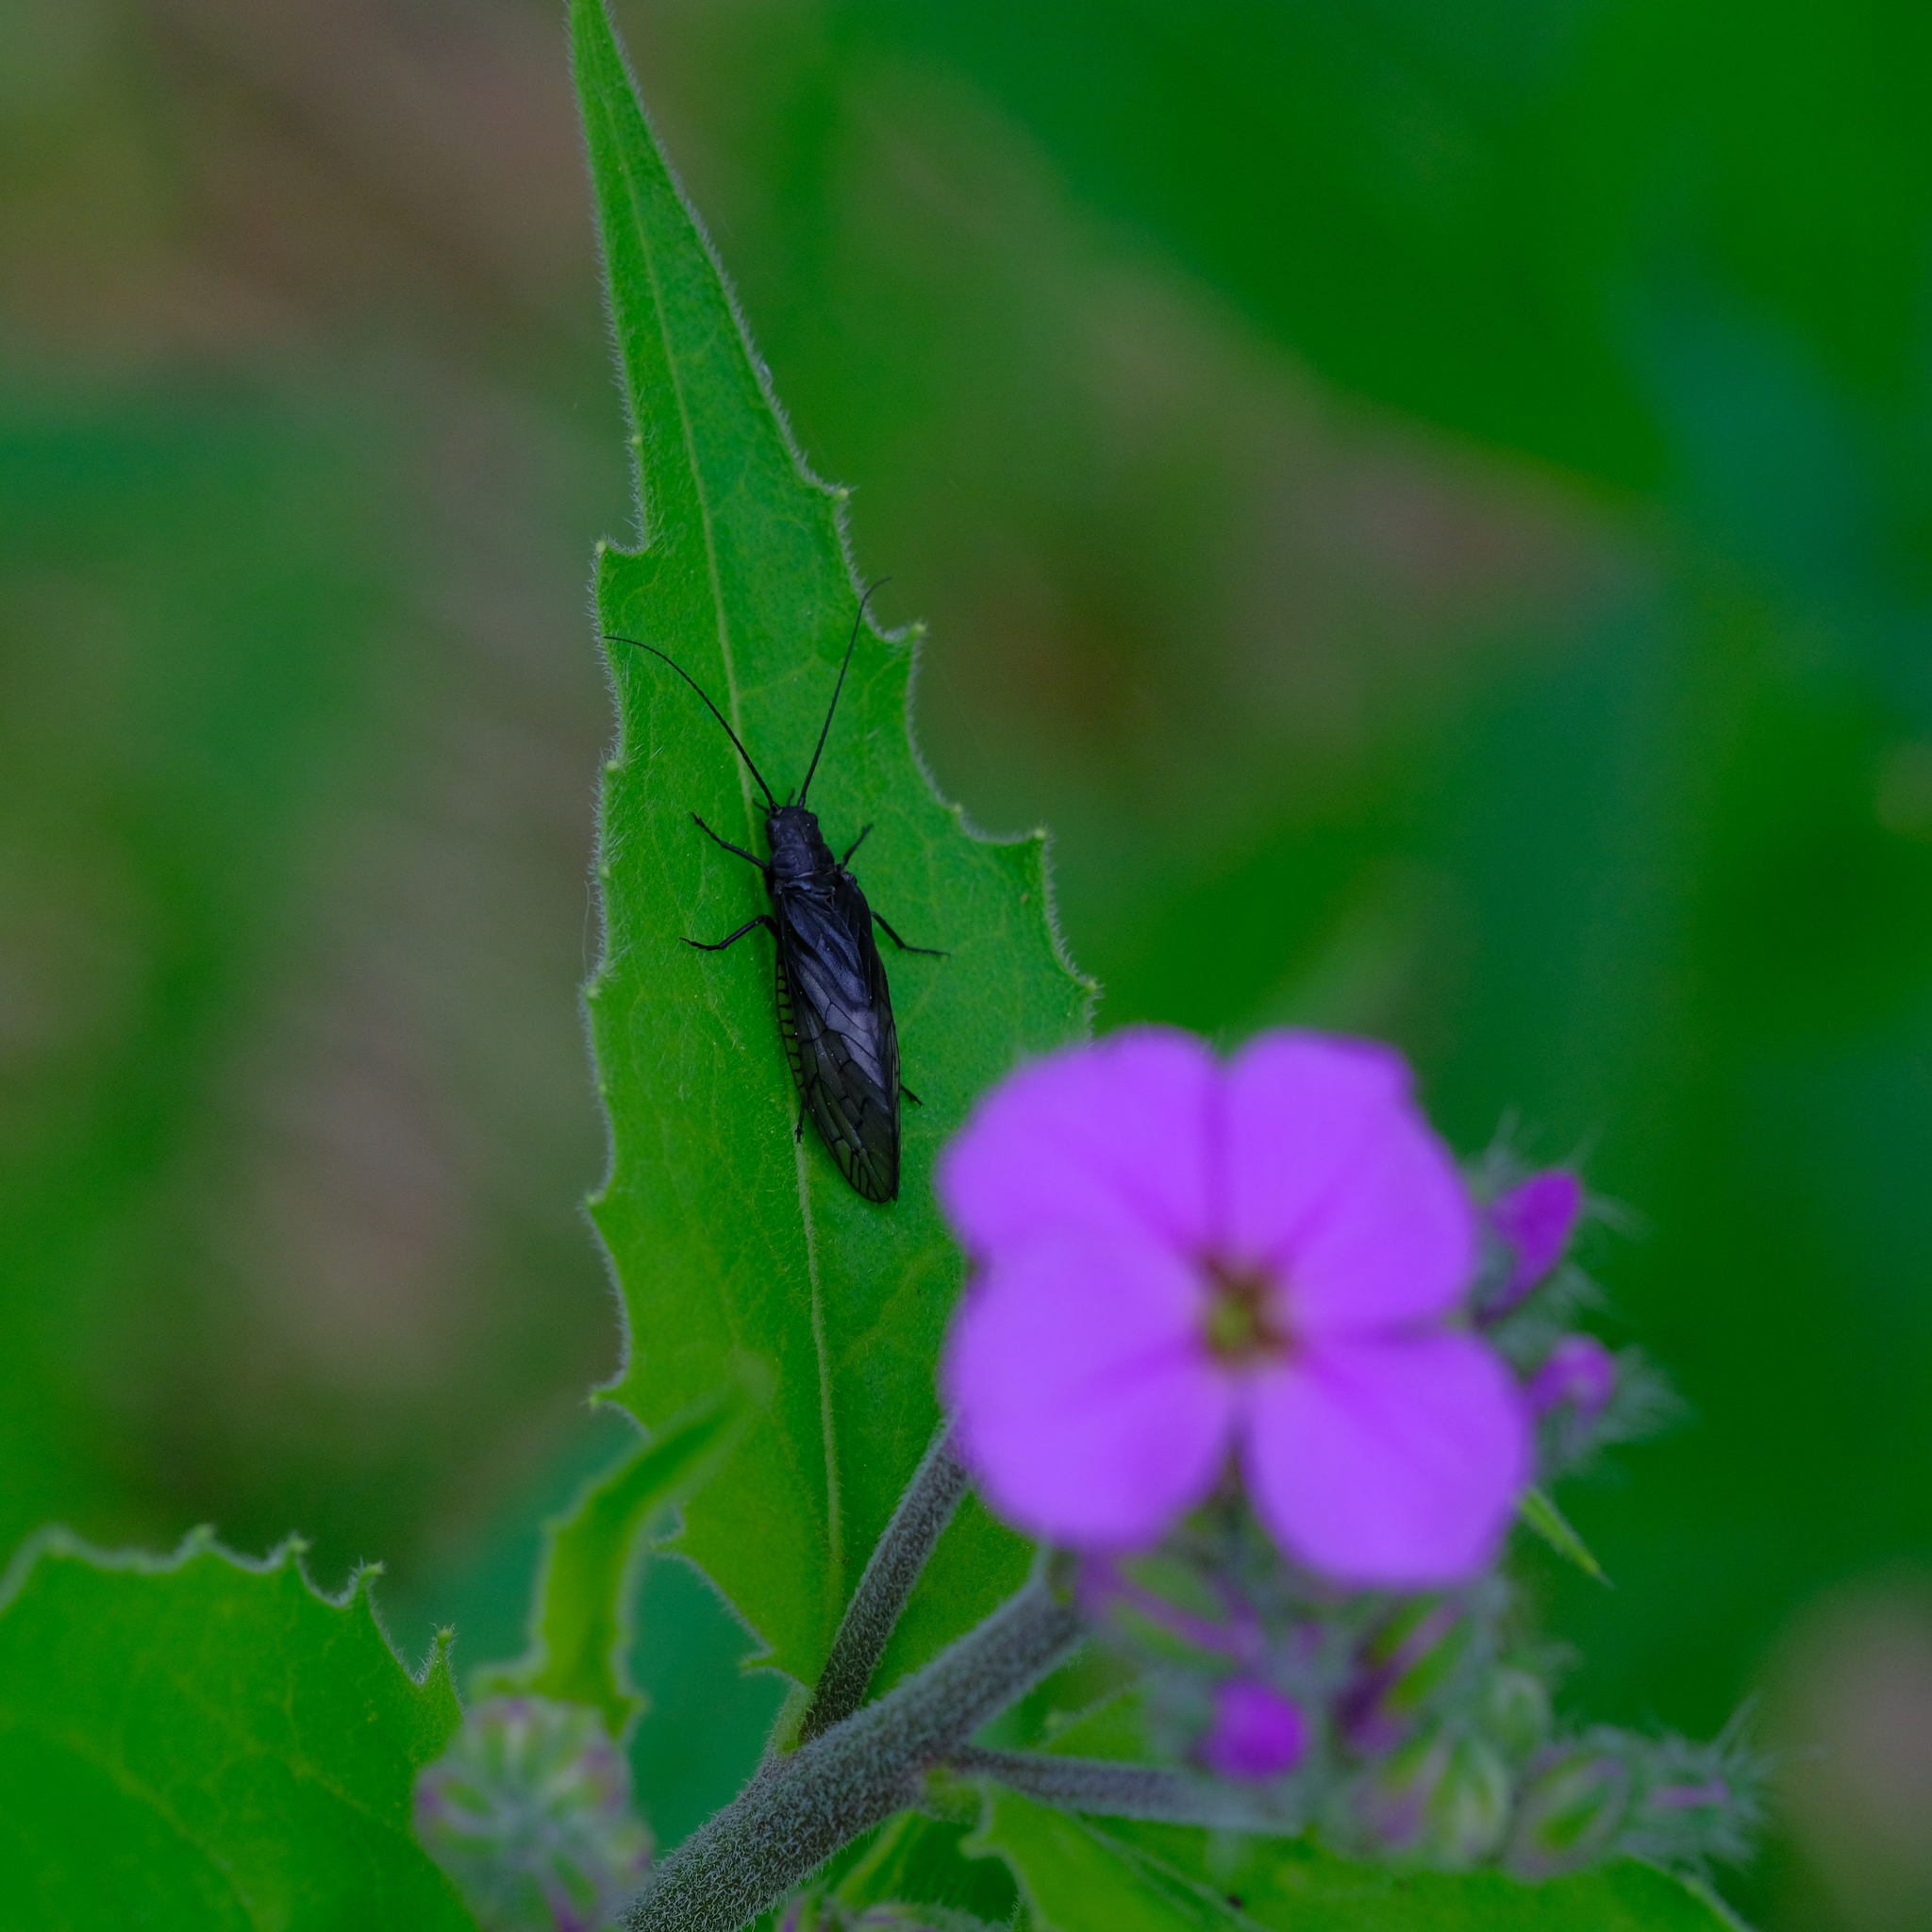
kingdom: Animalia
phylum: Arthropoda
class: Insecta
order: Megaloptera
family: Sialidae
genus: Sialis
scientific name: Sialis
